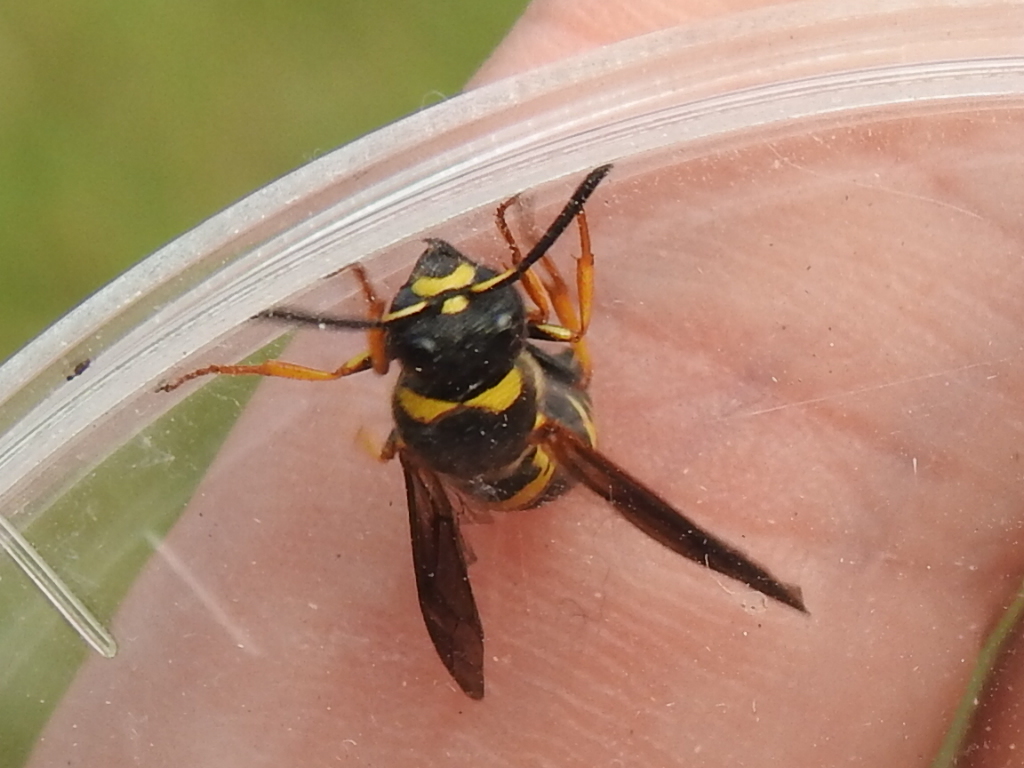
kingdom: Animalia
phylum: Arthropoda
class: Insecta
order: Hymenoptera
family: Eumenidae
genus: Euodynerus
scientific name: Euodynerus foraminatus
